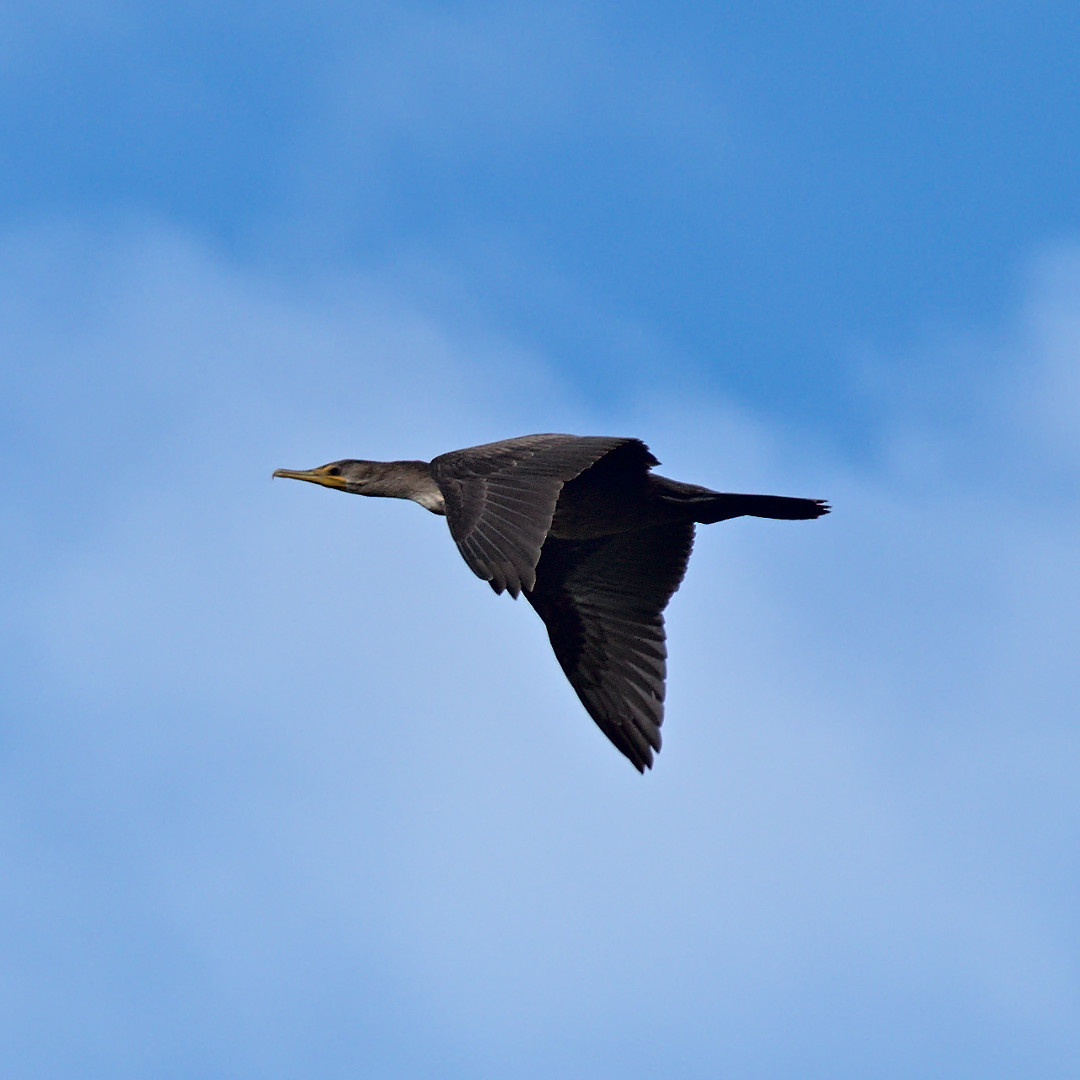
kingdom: Animalia
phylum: Chordata
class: Aves
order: Suliformes
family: Phalacrocoracidae
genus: Phalacrocorax
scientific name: Phalacrocorax auritus
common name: Double-crested cormorant
